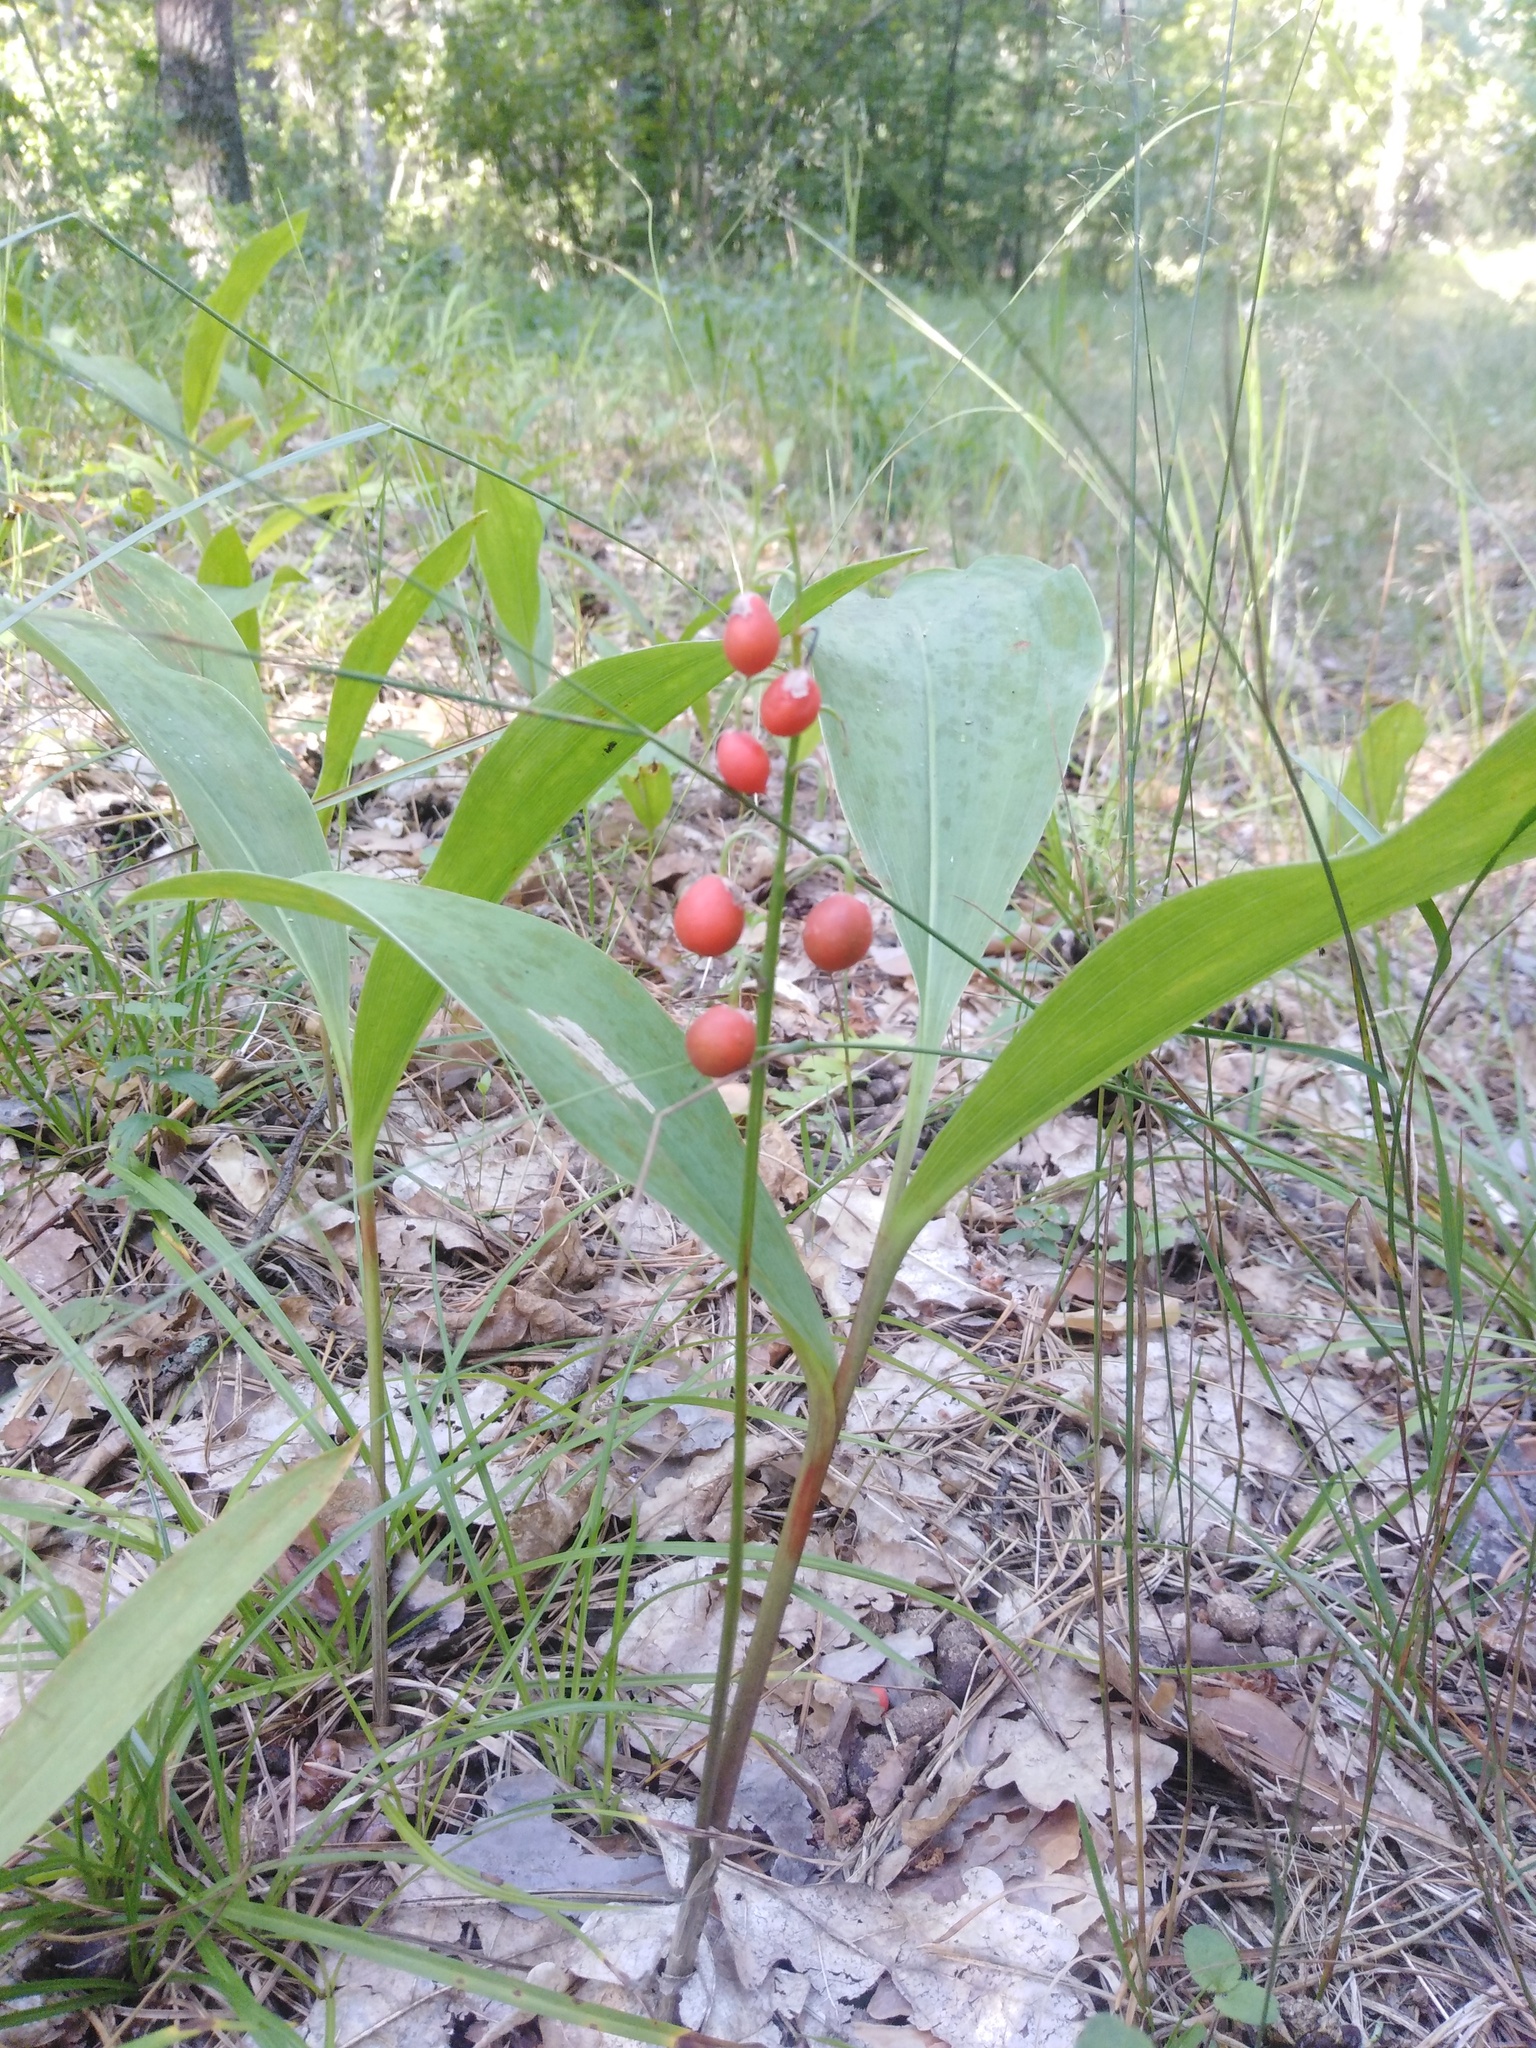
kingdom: Plantae
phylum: Tracheophyta
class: Liliopsida
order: Asparagales
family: Asparagaceae
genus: Convallaria
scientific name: Convallaria majalis
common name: Lily-of-the-valley
